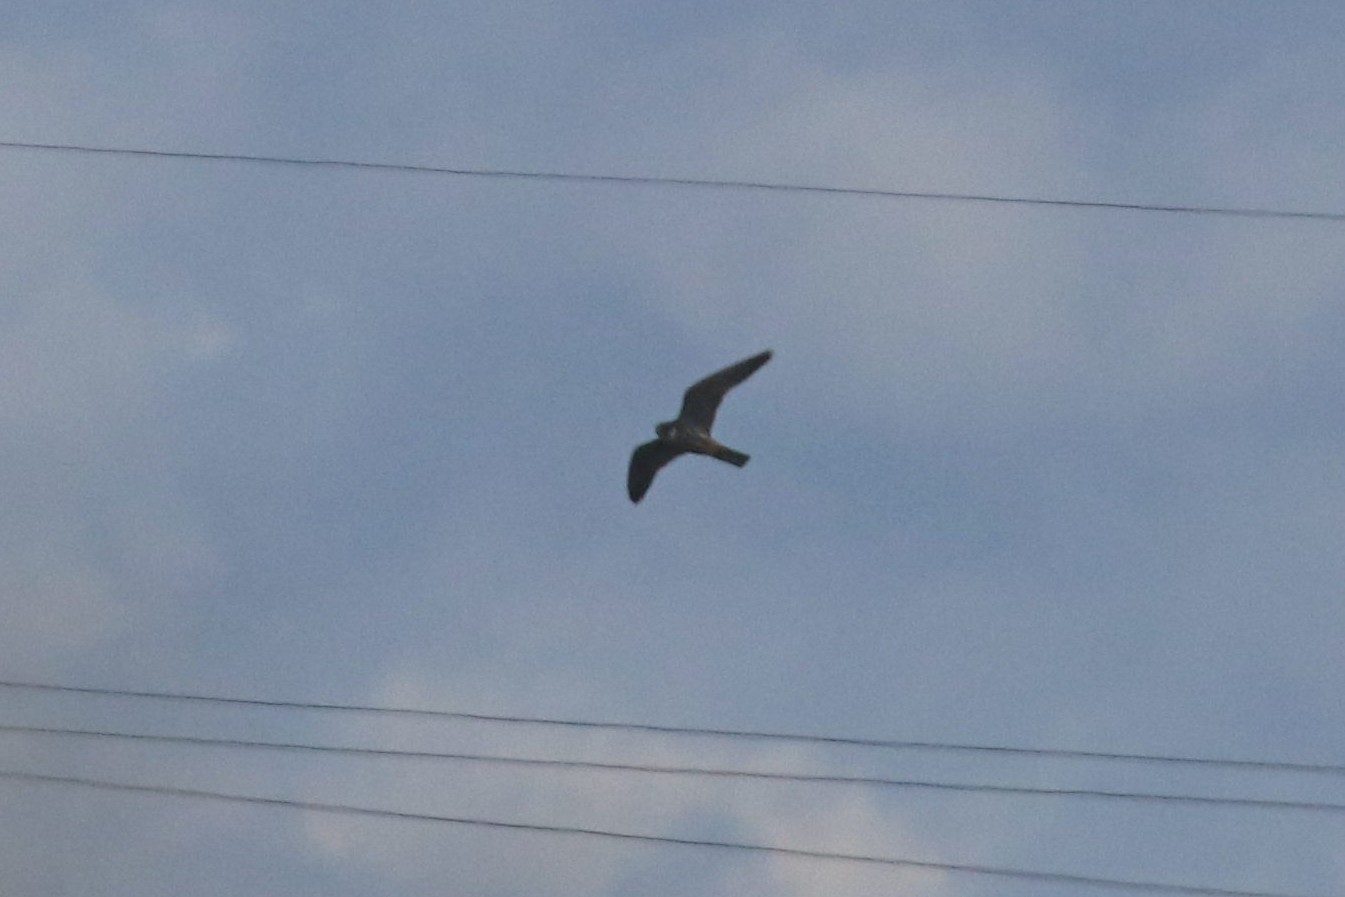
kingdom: Animalia
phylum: Chordata
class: Aves
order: Falconiformes
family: Falconidae
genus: Falco
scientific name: Falco subbuteo
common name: Eurasian hobby
